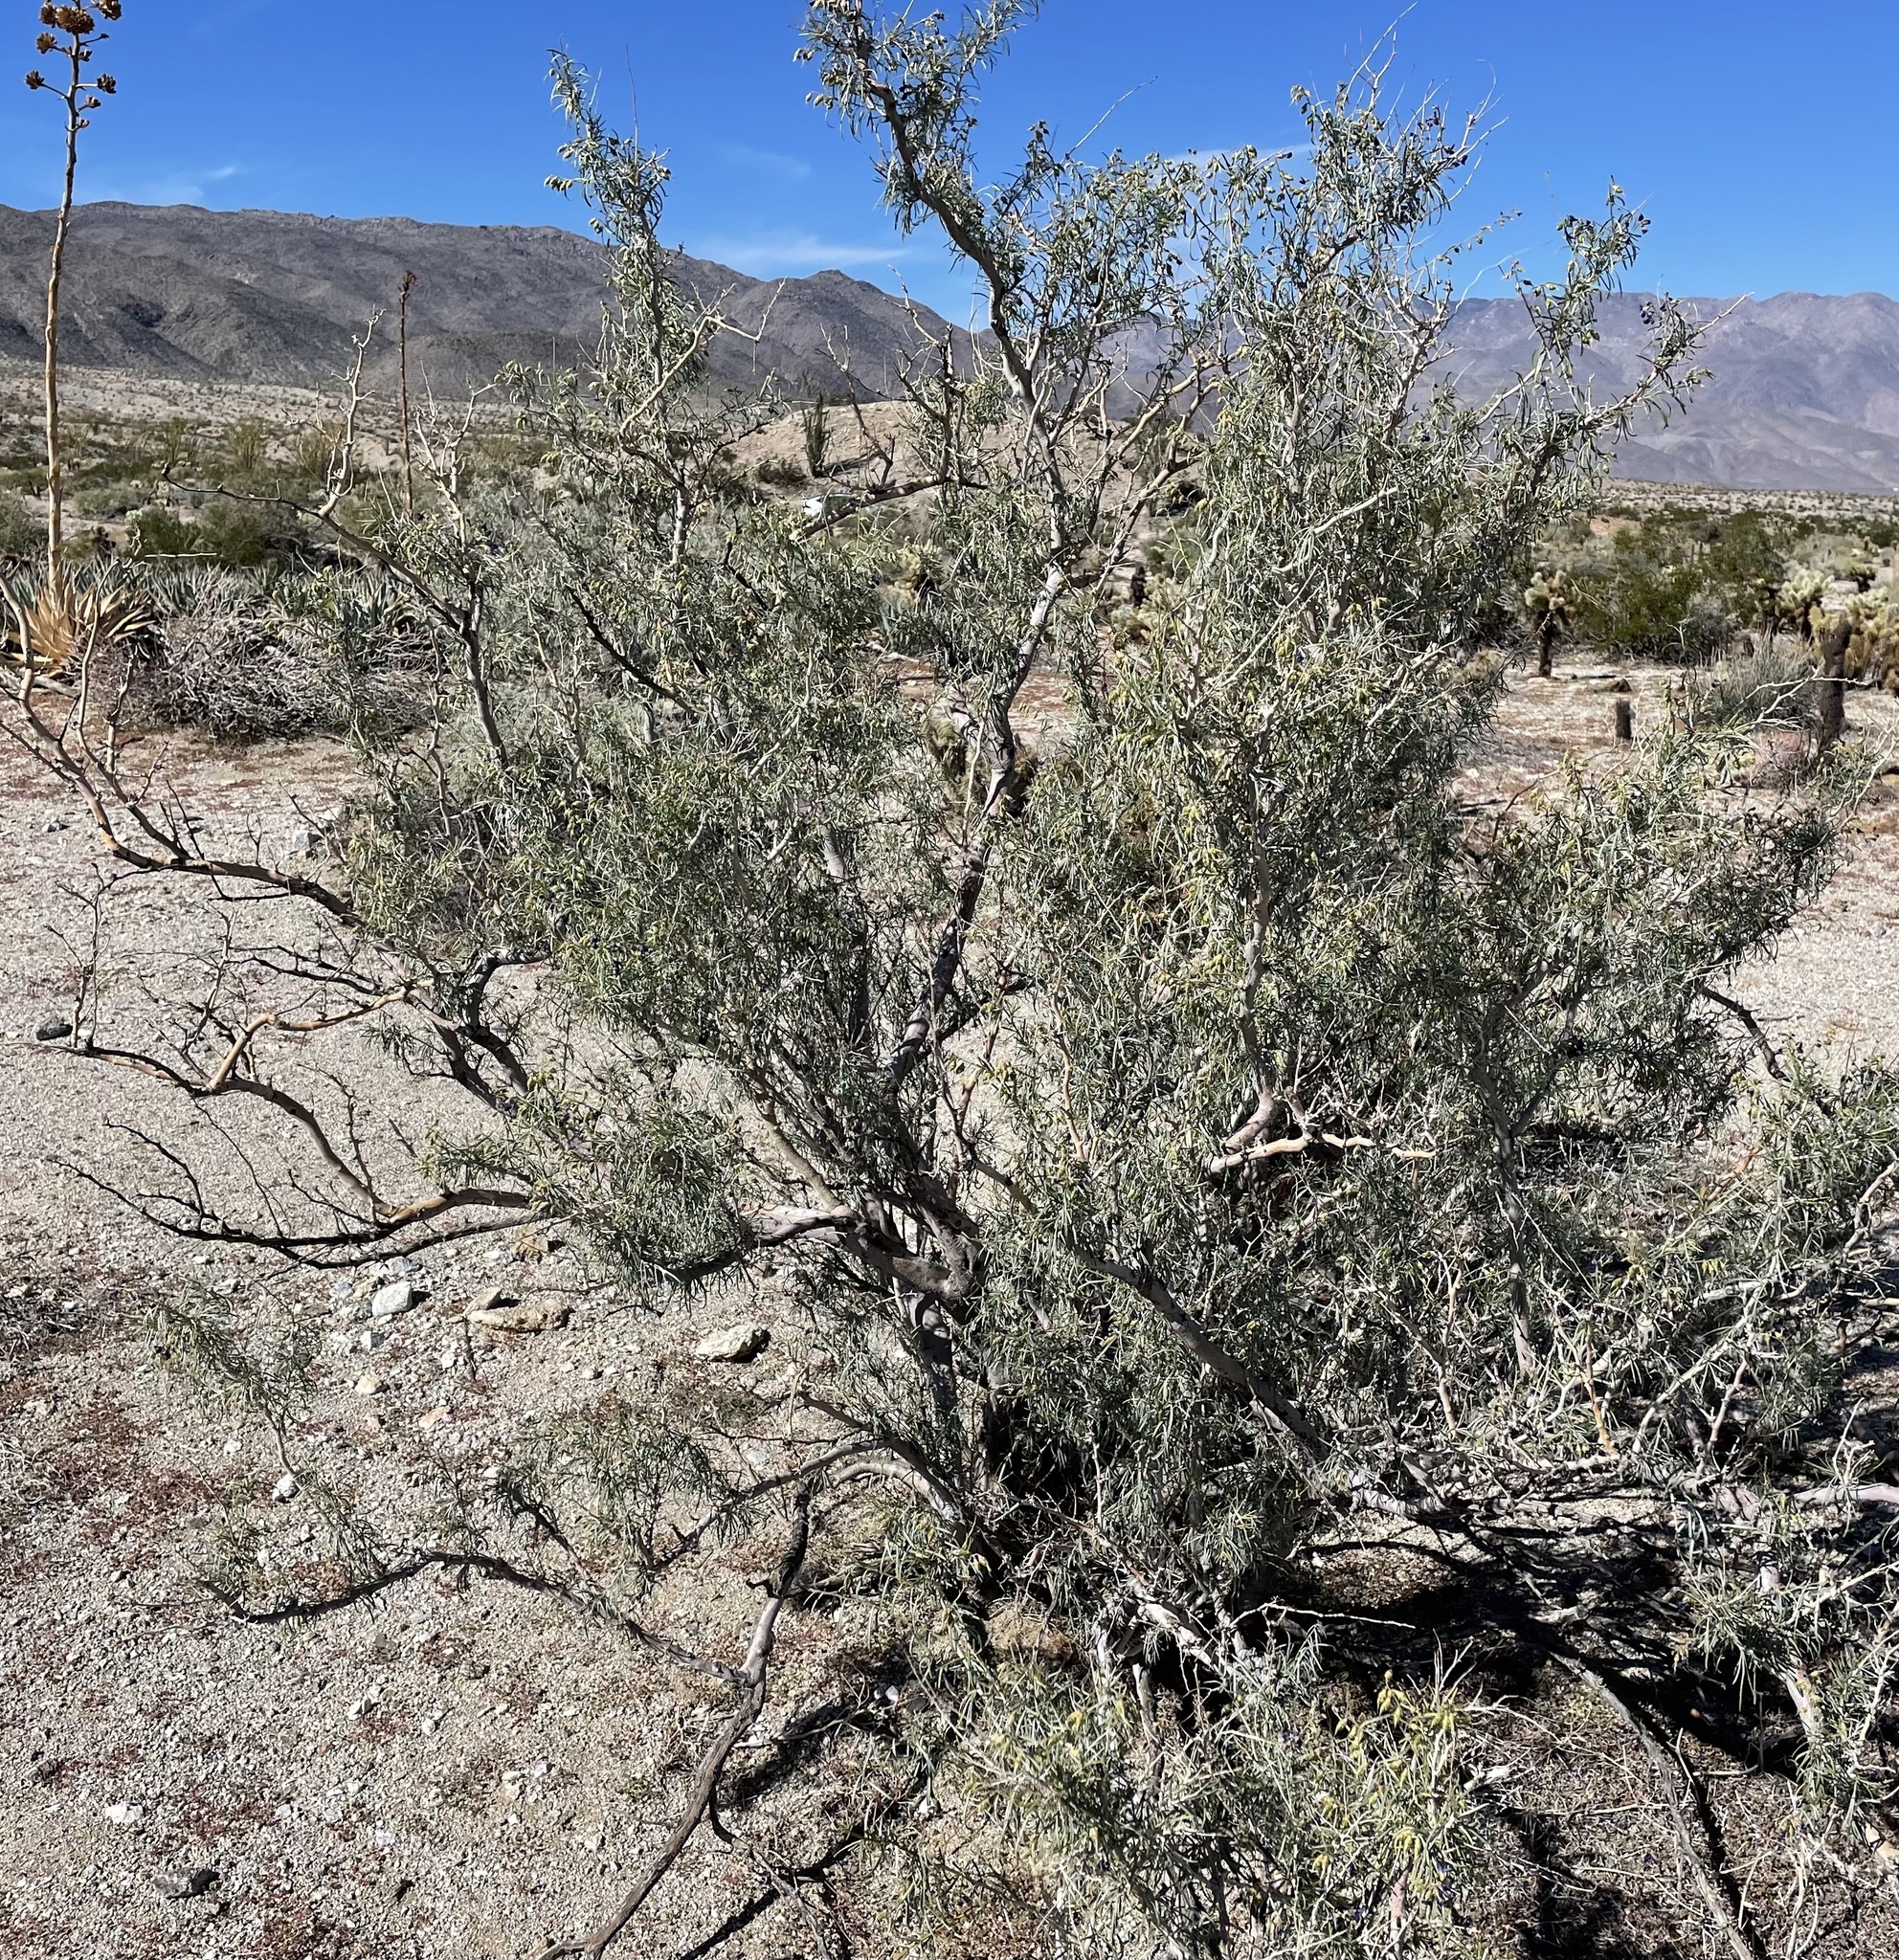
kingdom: Plantae
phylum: Tracheophyta
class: Magnoliopsida
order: Fabales
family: Fabaceae
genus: Psorothamnus
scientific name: Psorothamnus schottii
